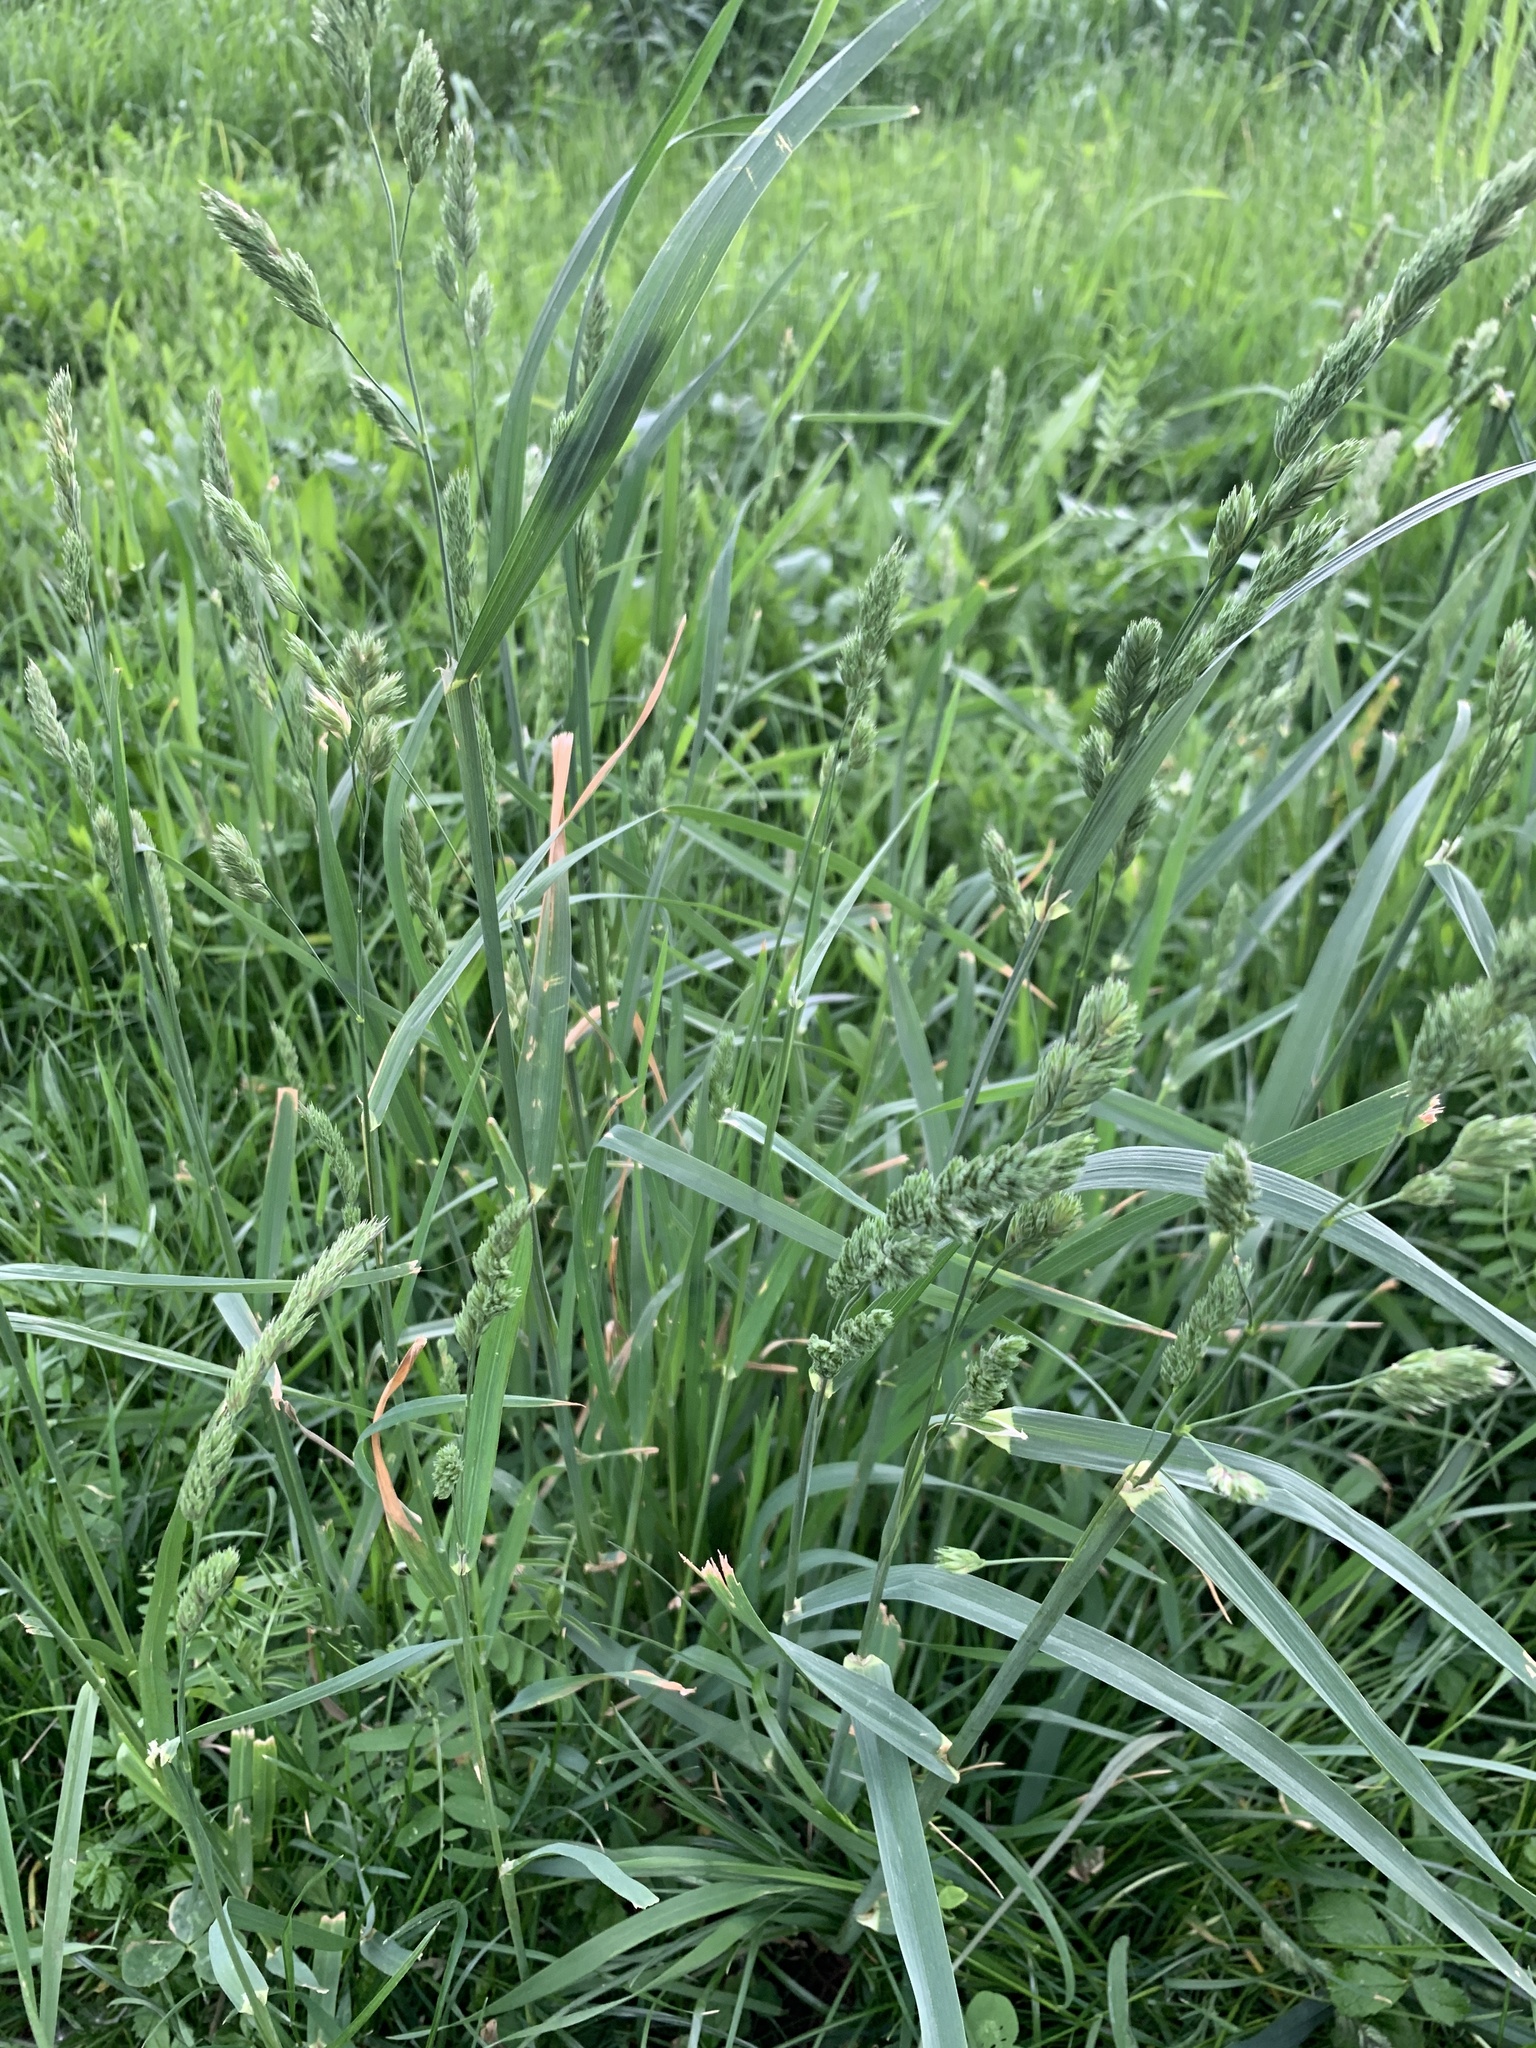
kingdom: Plantae
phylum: Tracheophyta
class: Liliopsida
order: Poales
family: Poaceae
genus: Dactylis
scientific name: Dactylis glomerata
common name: Orchardgrass
